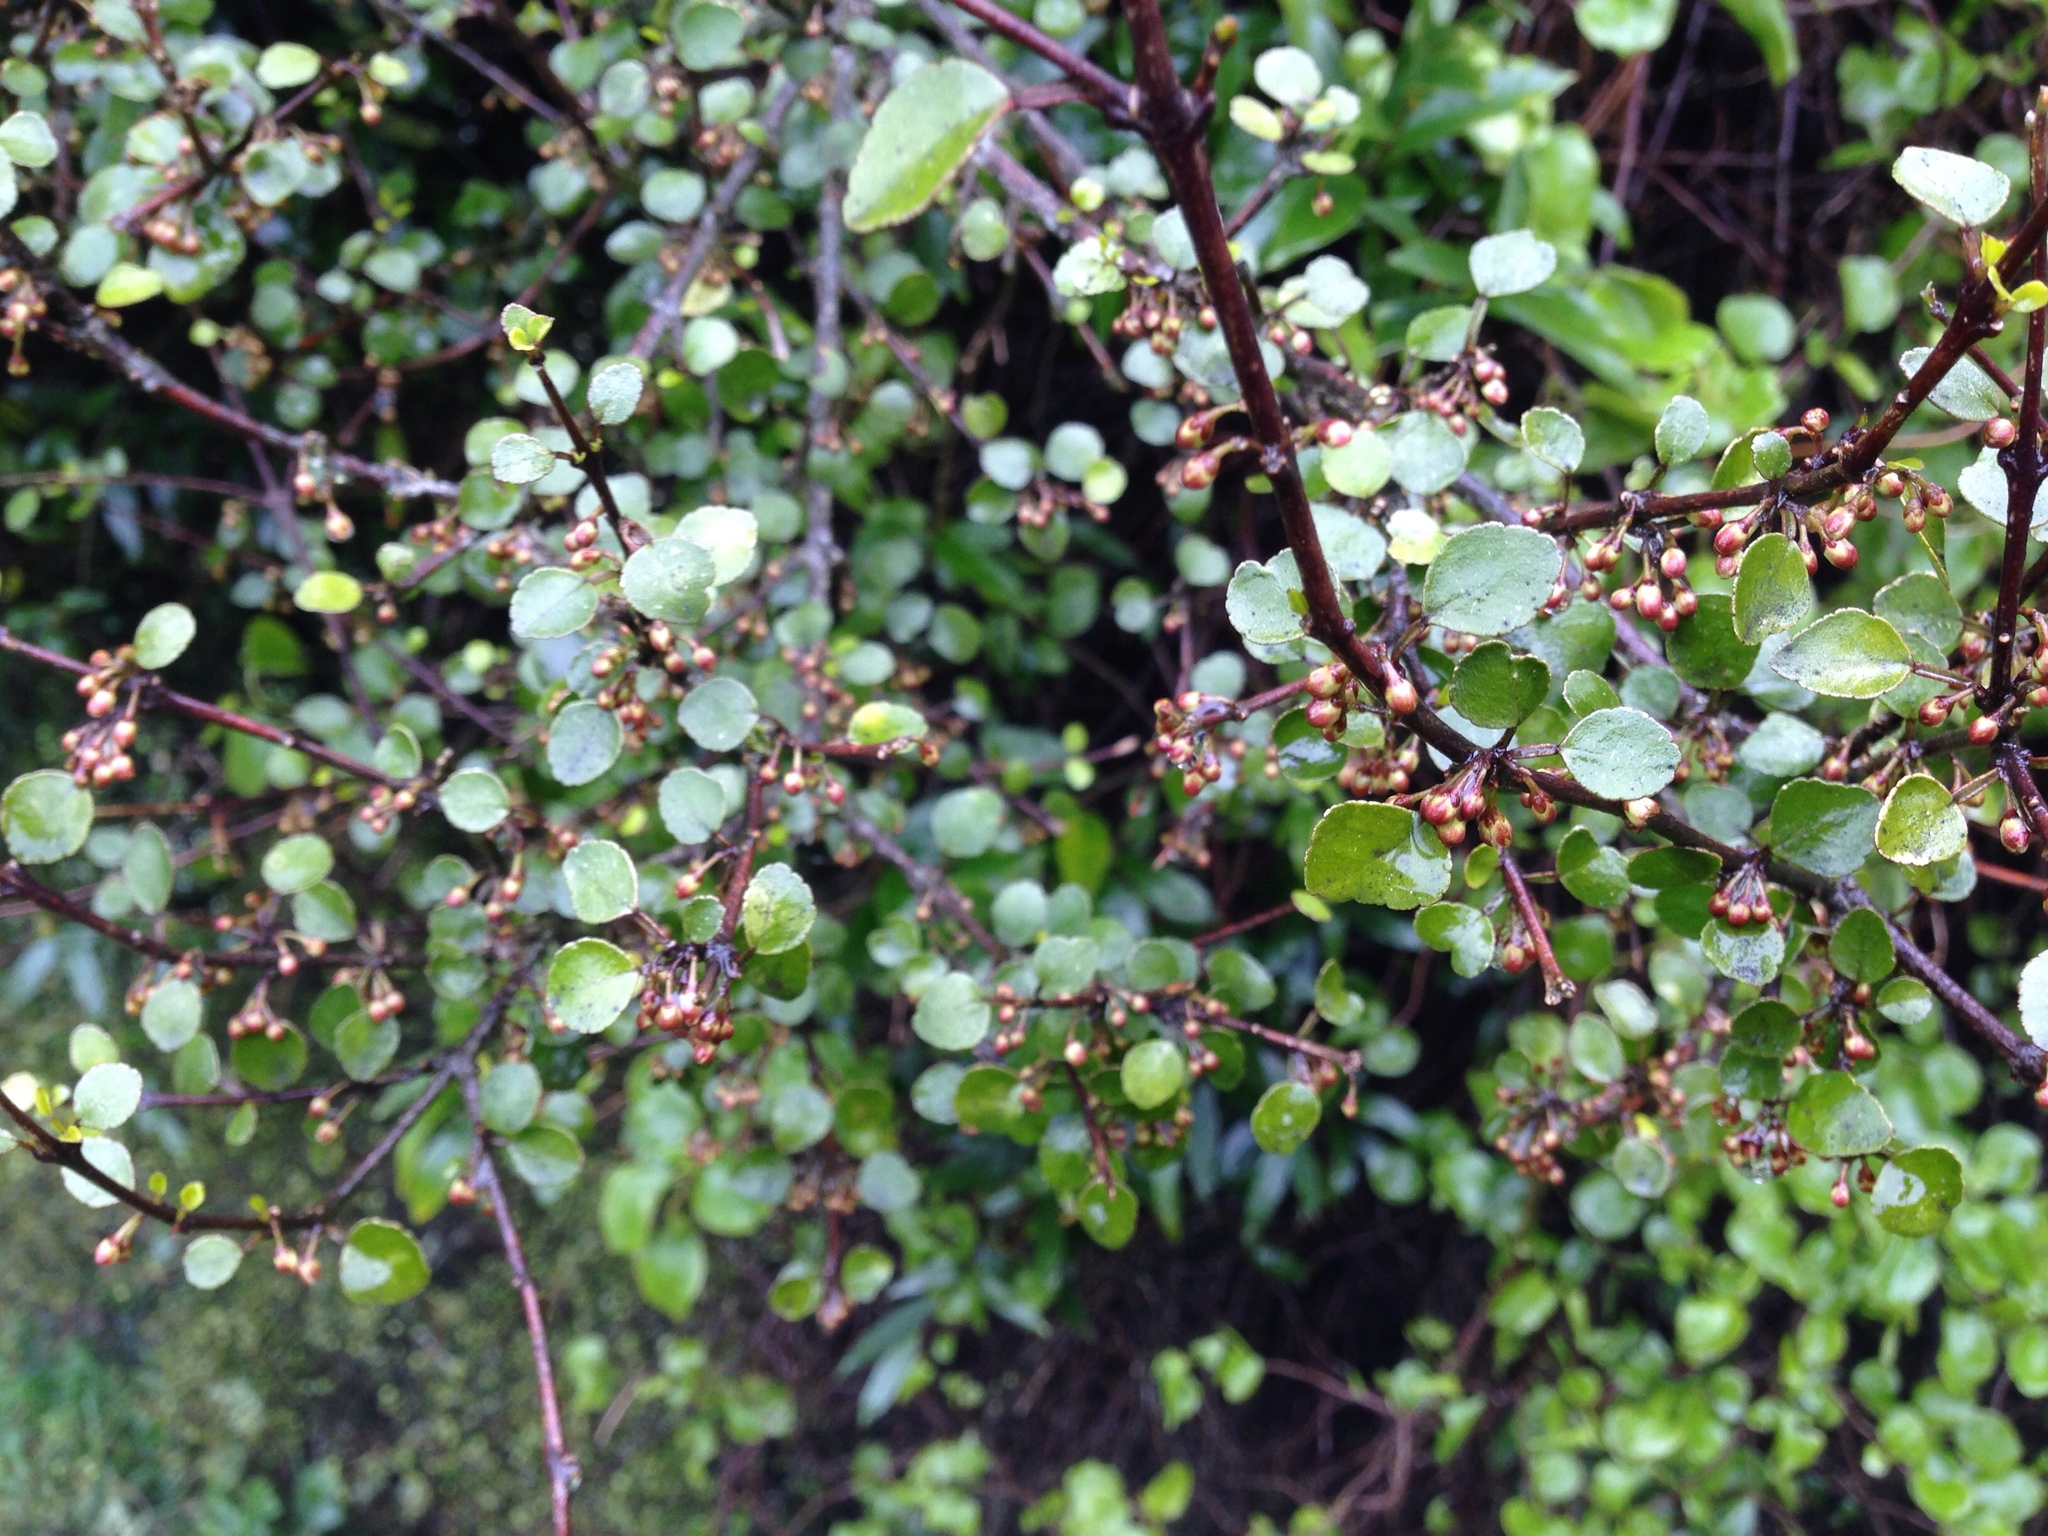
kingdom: Plantae
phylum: Tracheophyta
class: Magnoliopsida
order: Sapindales
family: Rutaceae
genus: Melicope
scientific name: Melicope simplex
